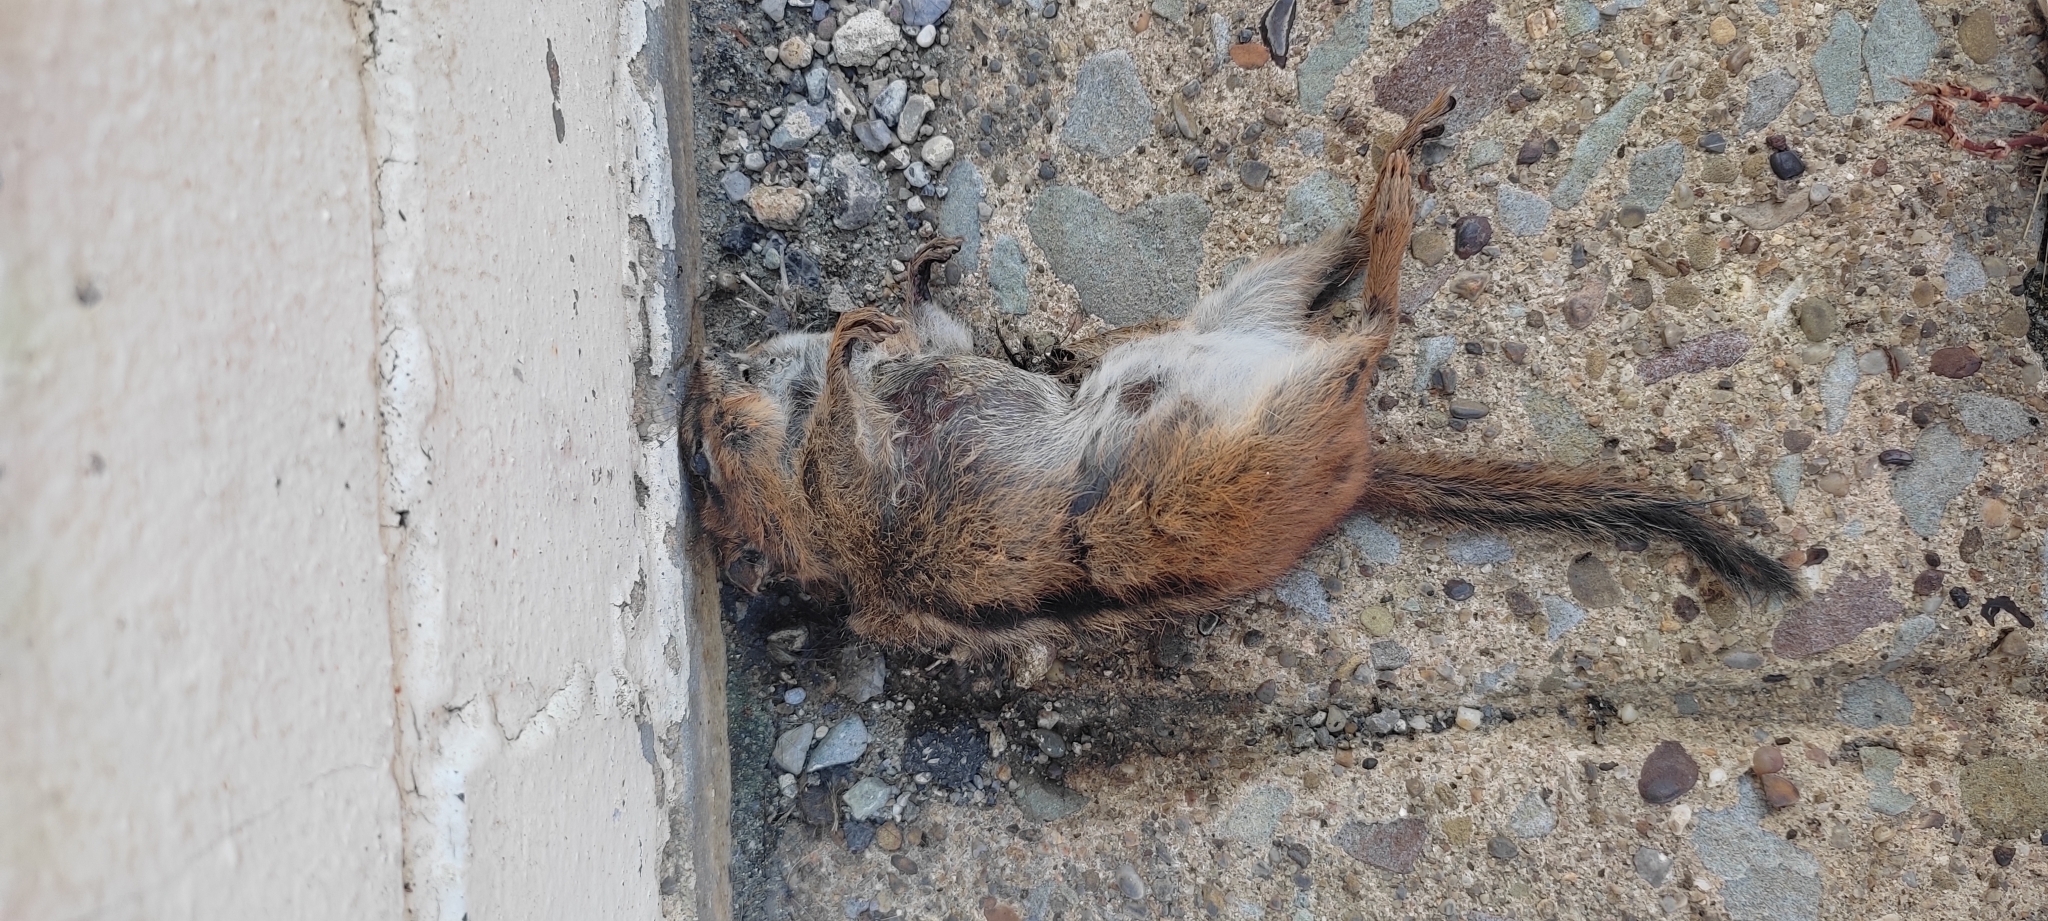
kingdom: Animalia
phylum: Chordata
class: Mammalia
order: Rodentia
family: Sciuridae
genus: Tamias
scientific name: Tamias striatus
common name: Eastern chipmunk
